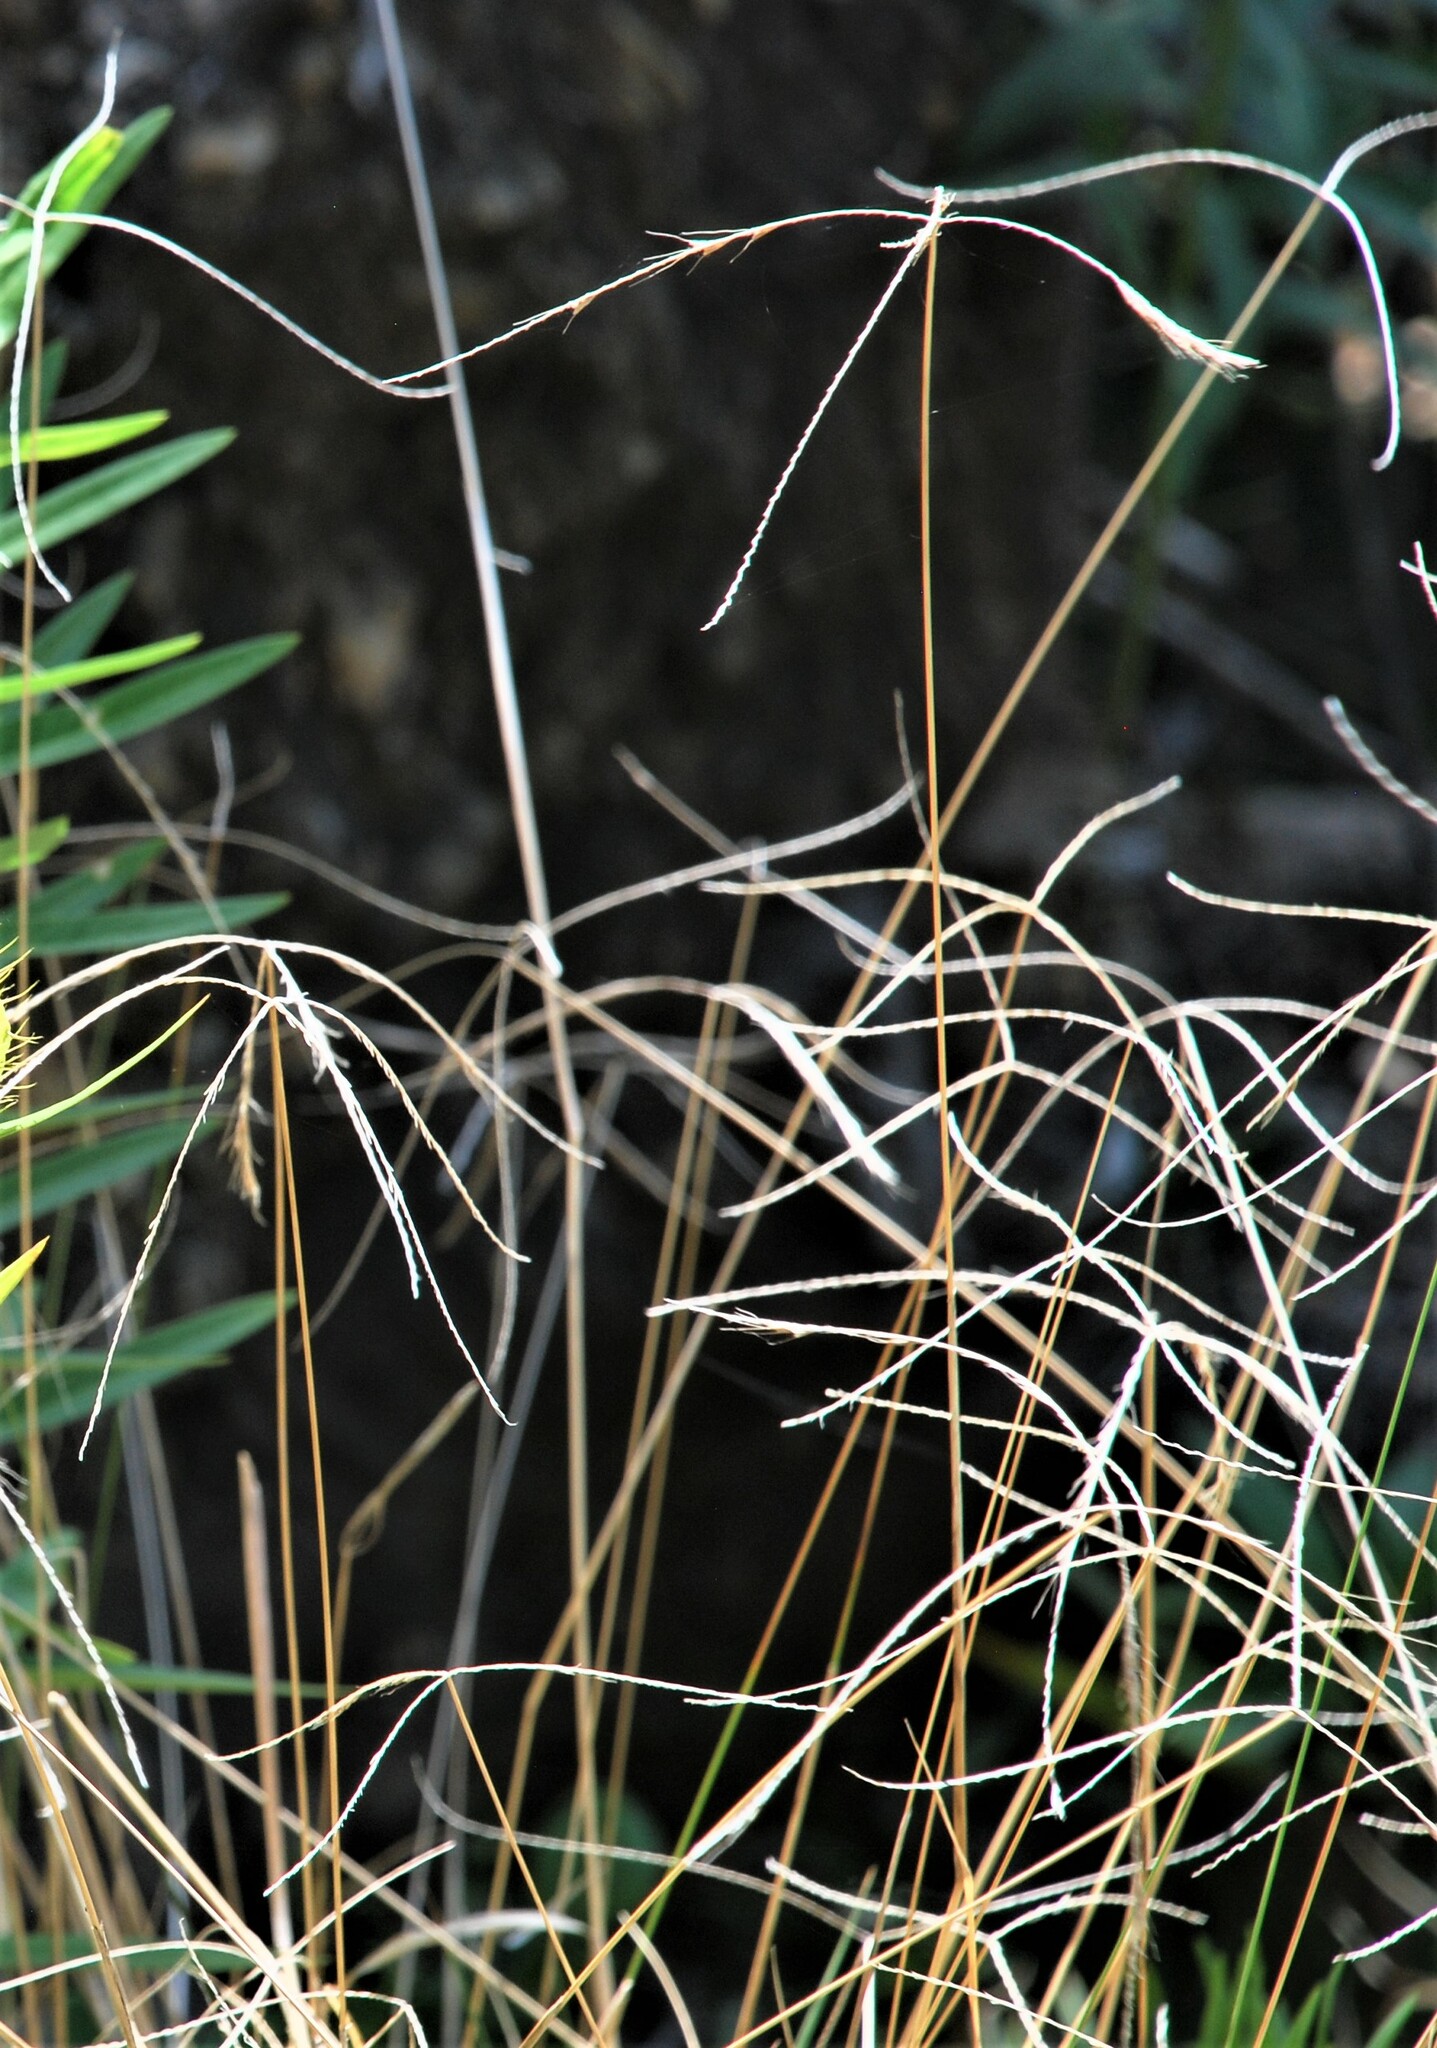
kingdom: Plantae
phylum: Tracheophyta
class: Liliopsida
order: Poales
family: Poaceae
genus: Chloris
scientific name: Chloris ventricosa
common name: Australian windmill grass
